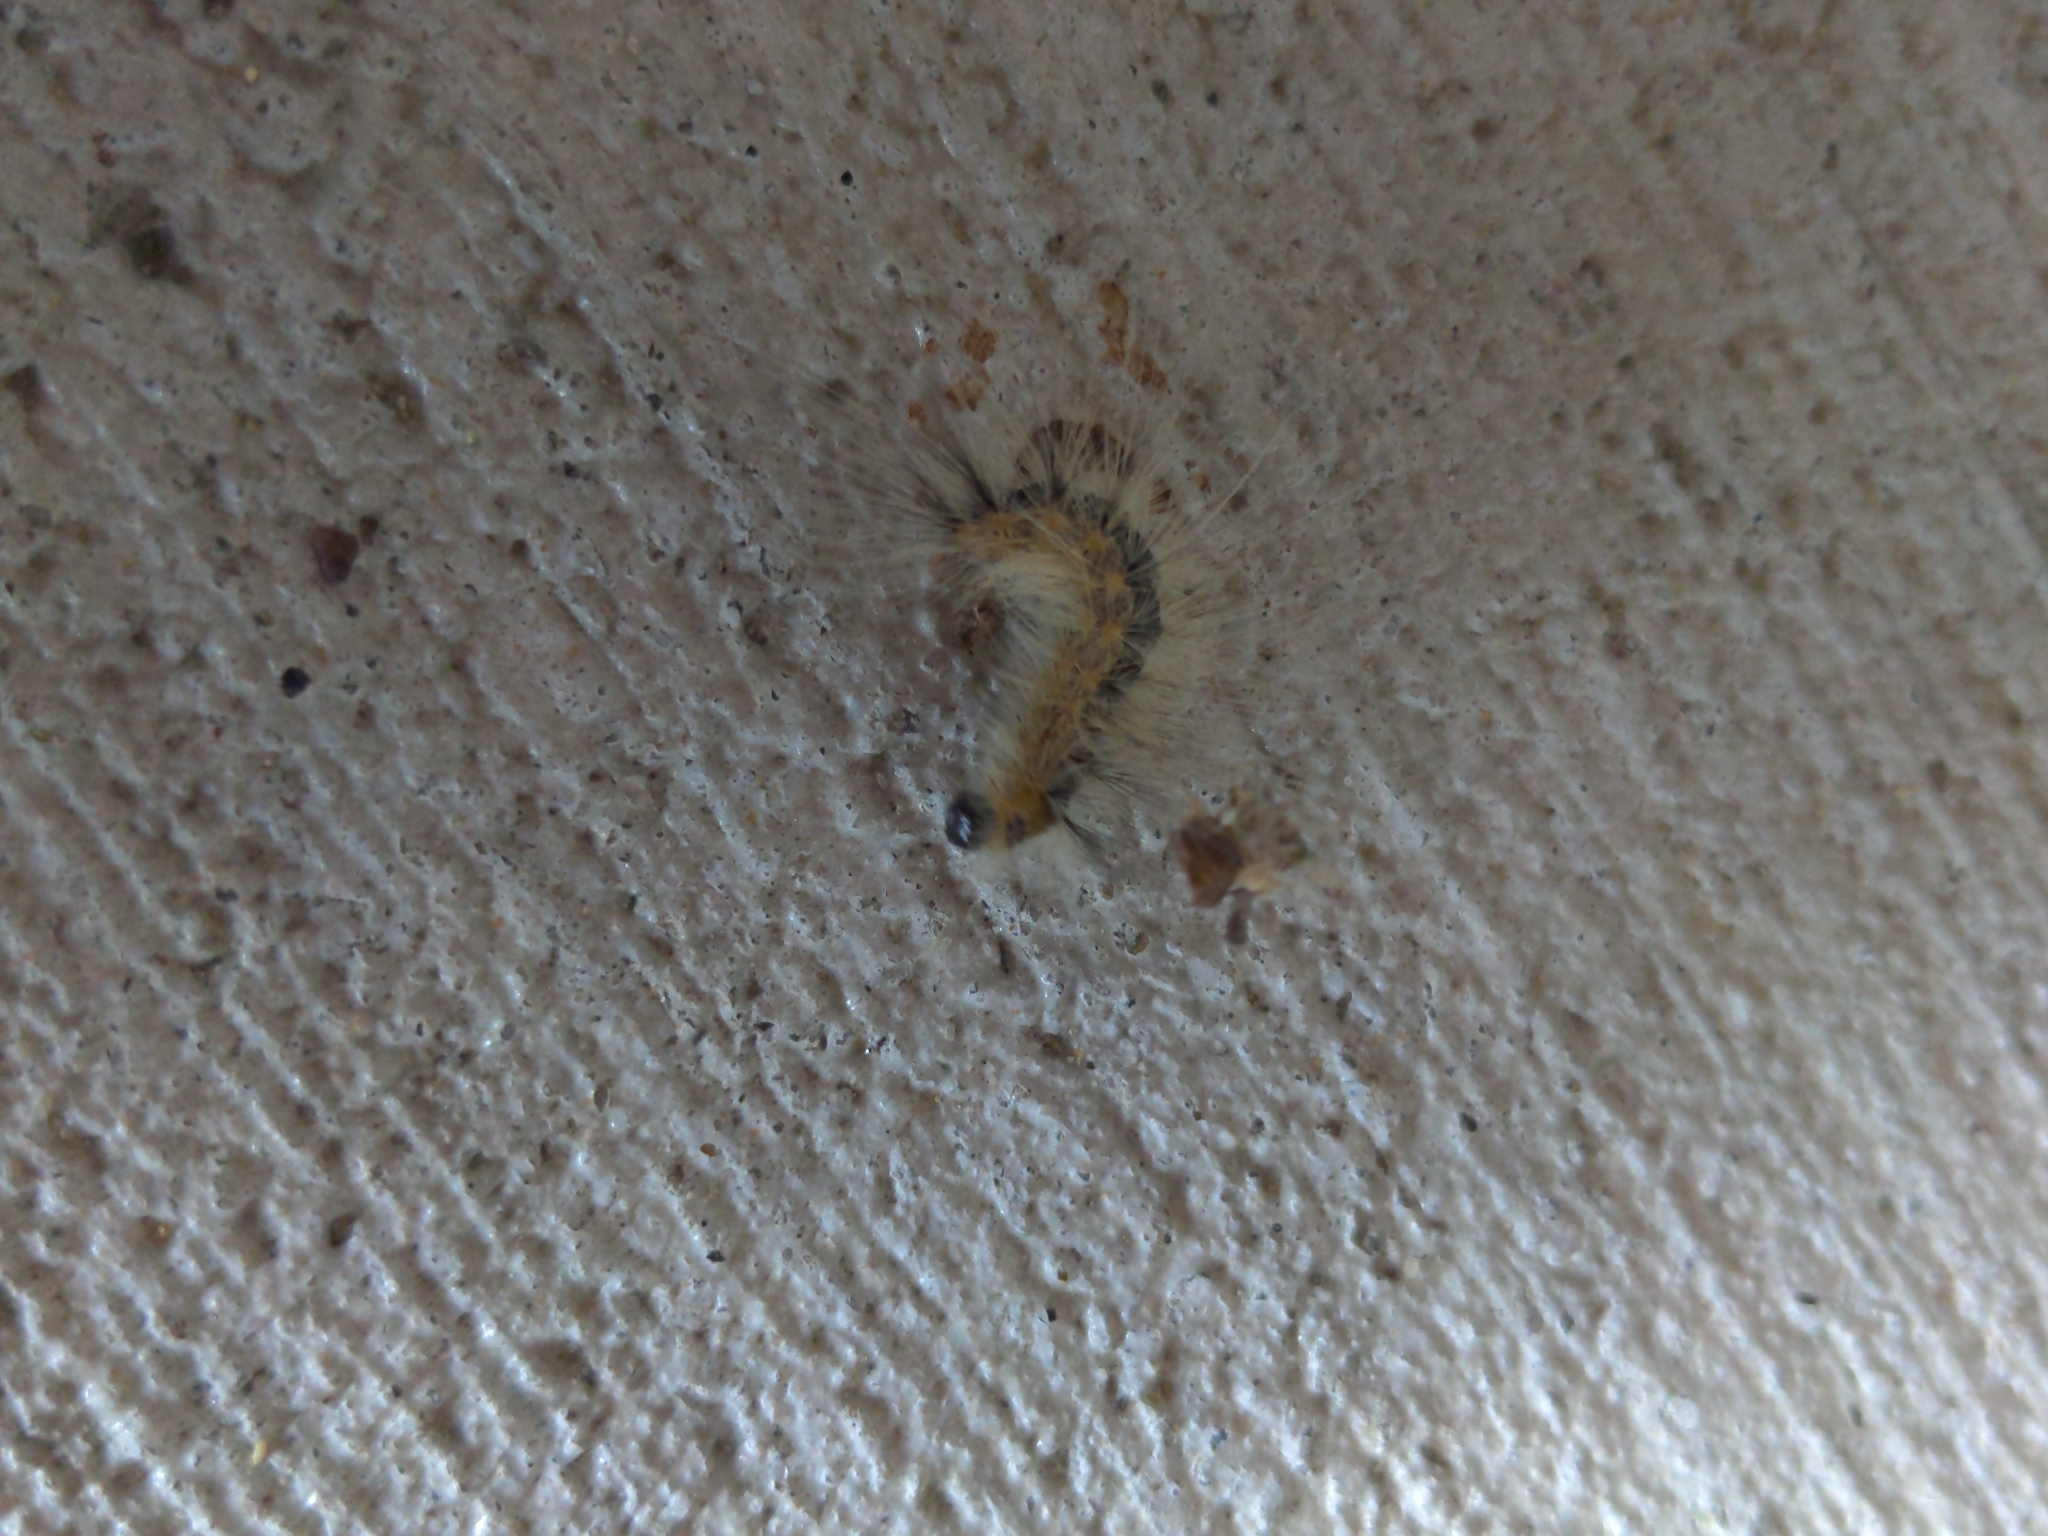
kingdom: Animalia
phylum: Arthropoda
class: Insecta
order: Lepidoptera
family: Erebidae
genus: Hyphantria
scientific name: Hyphantria cunea
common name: American white moth
